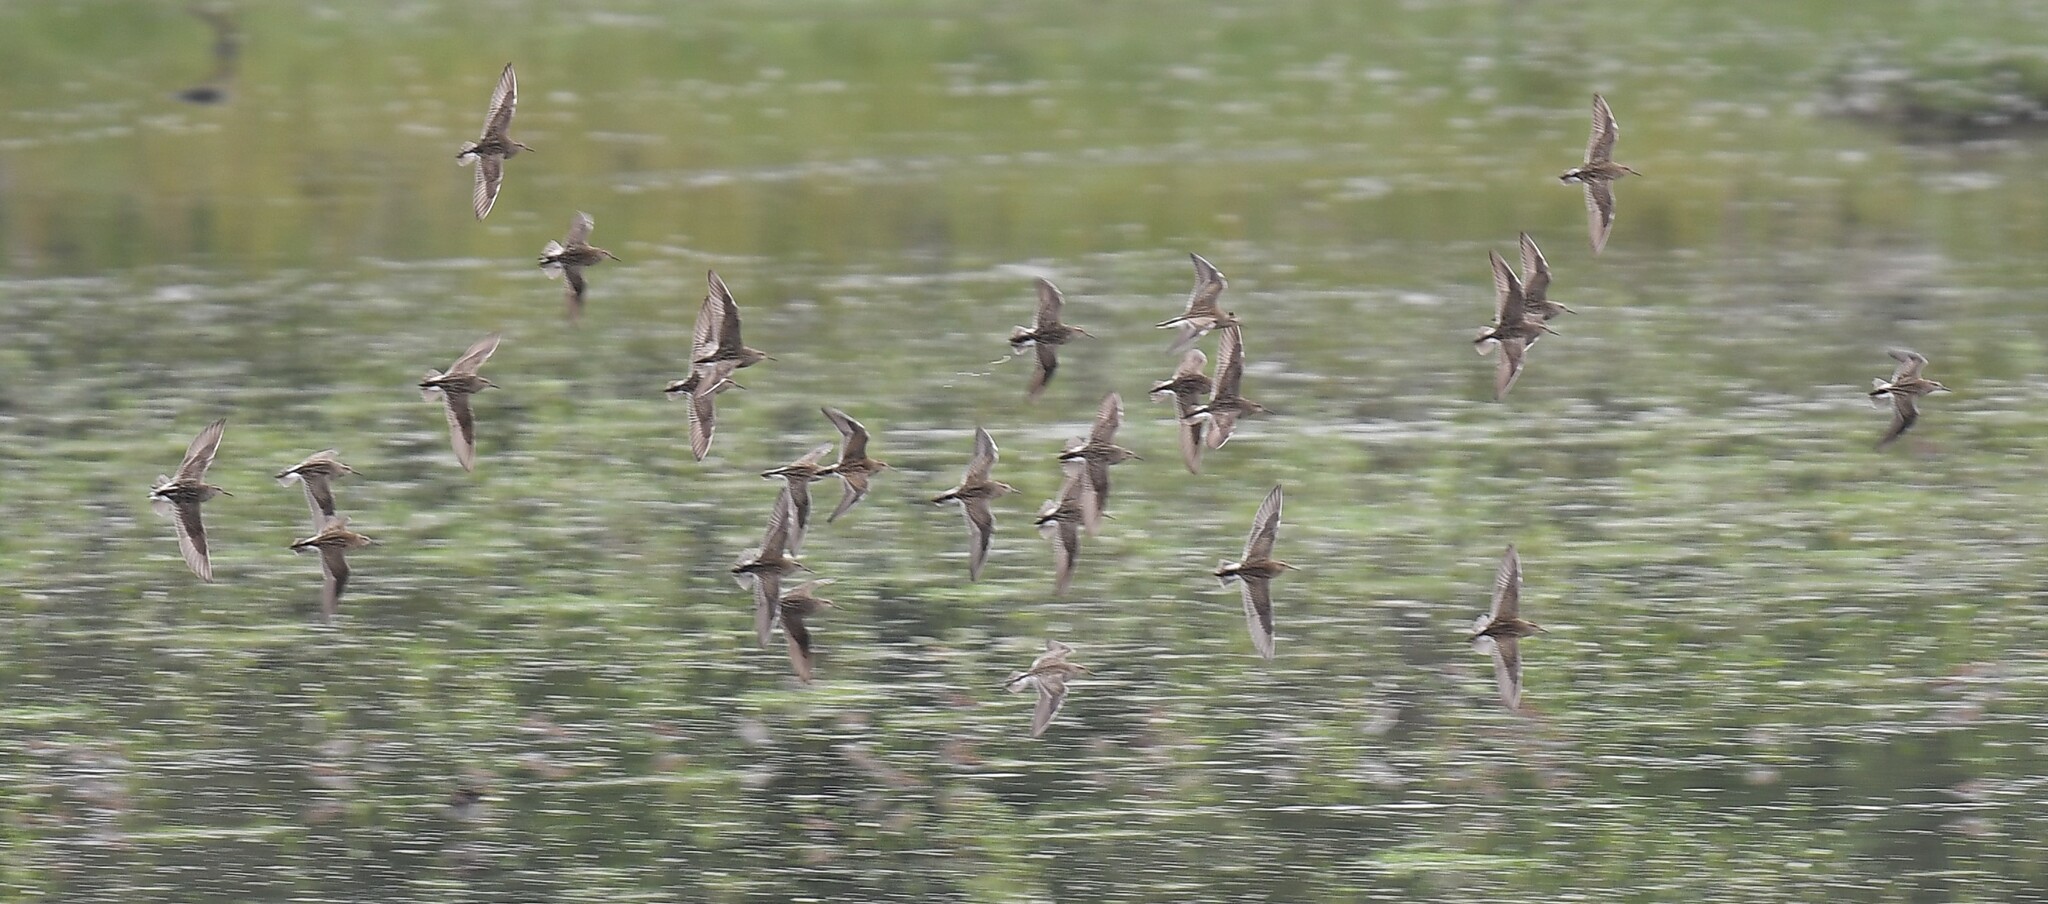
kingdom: Animalia
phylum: Chordata
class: Aves
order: Charadriiformes
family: Scolopacidae
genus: Calidris
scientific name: Calidris melanotos
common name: Pectoral sandpiper
